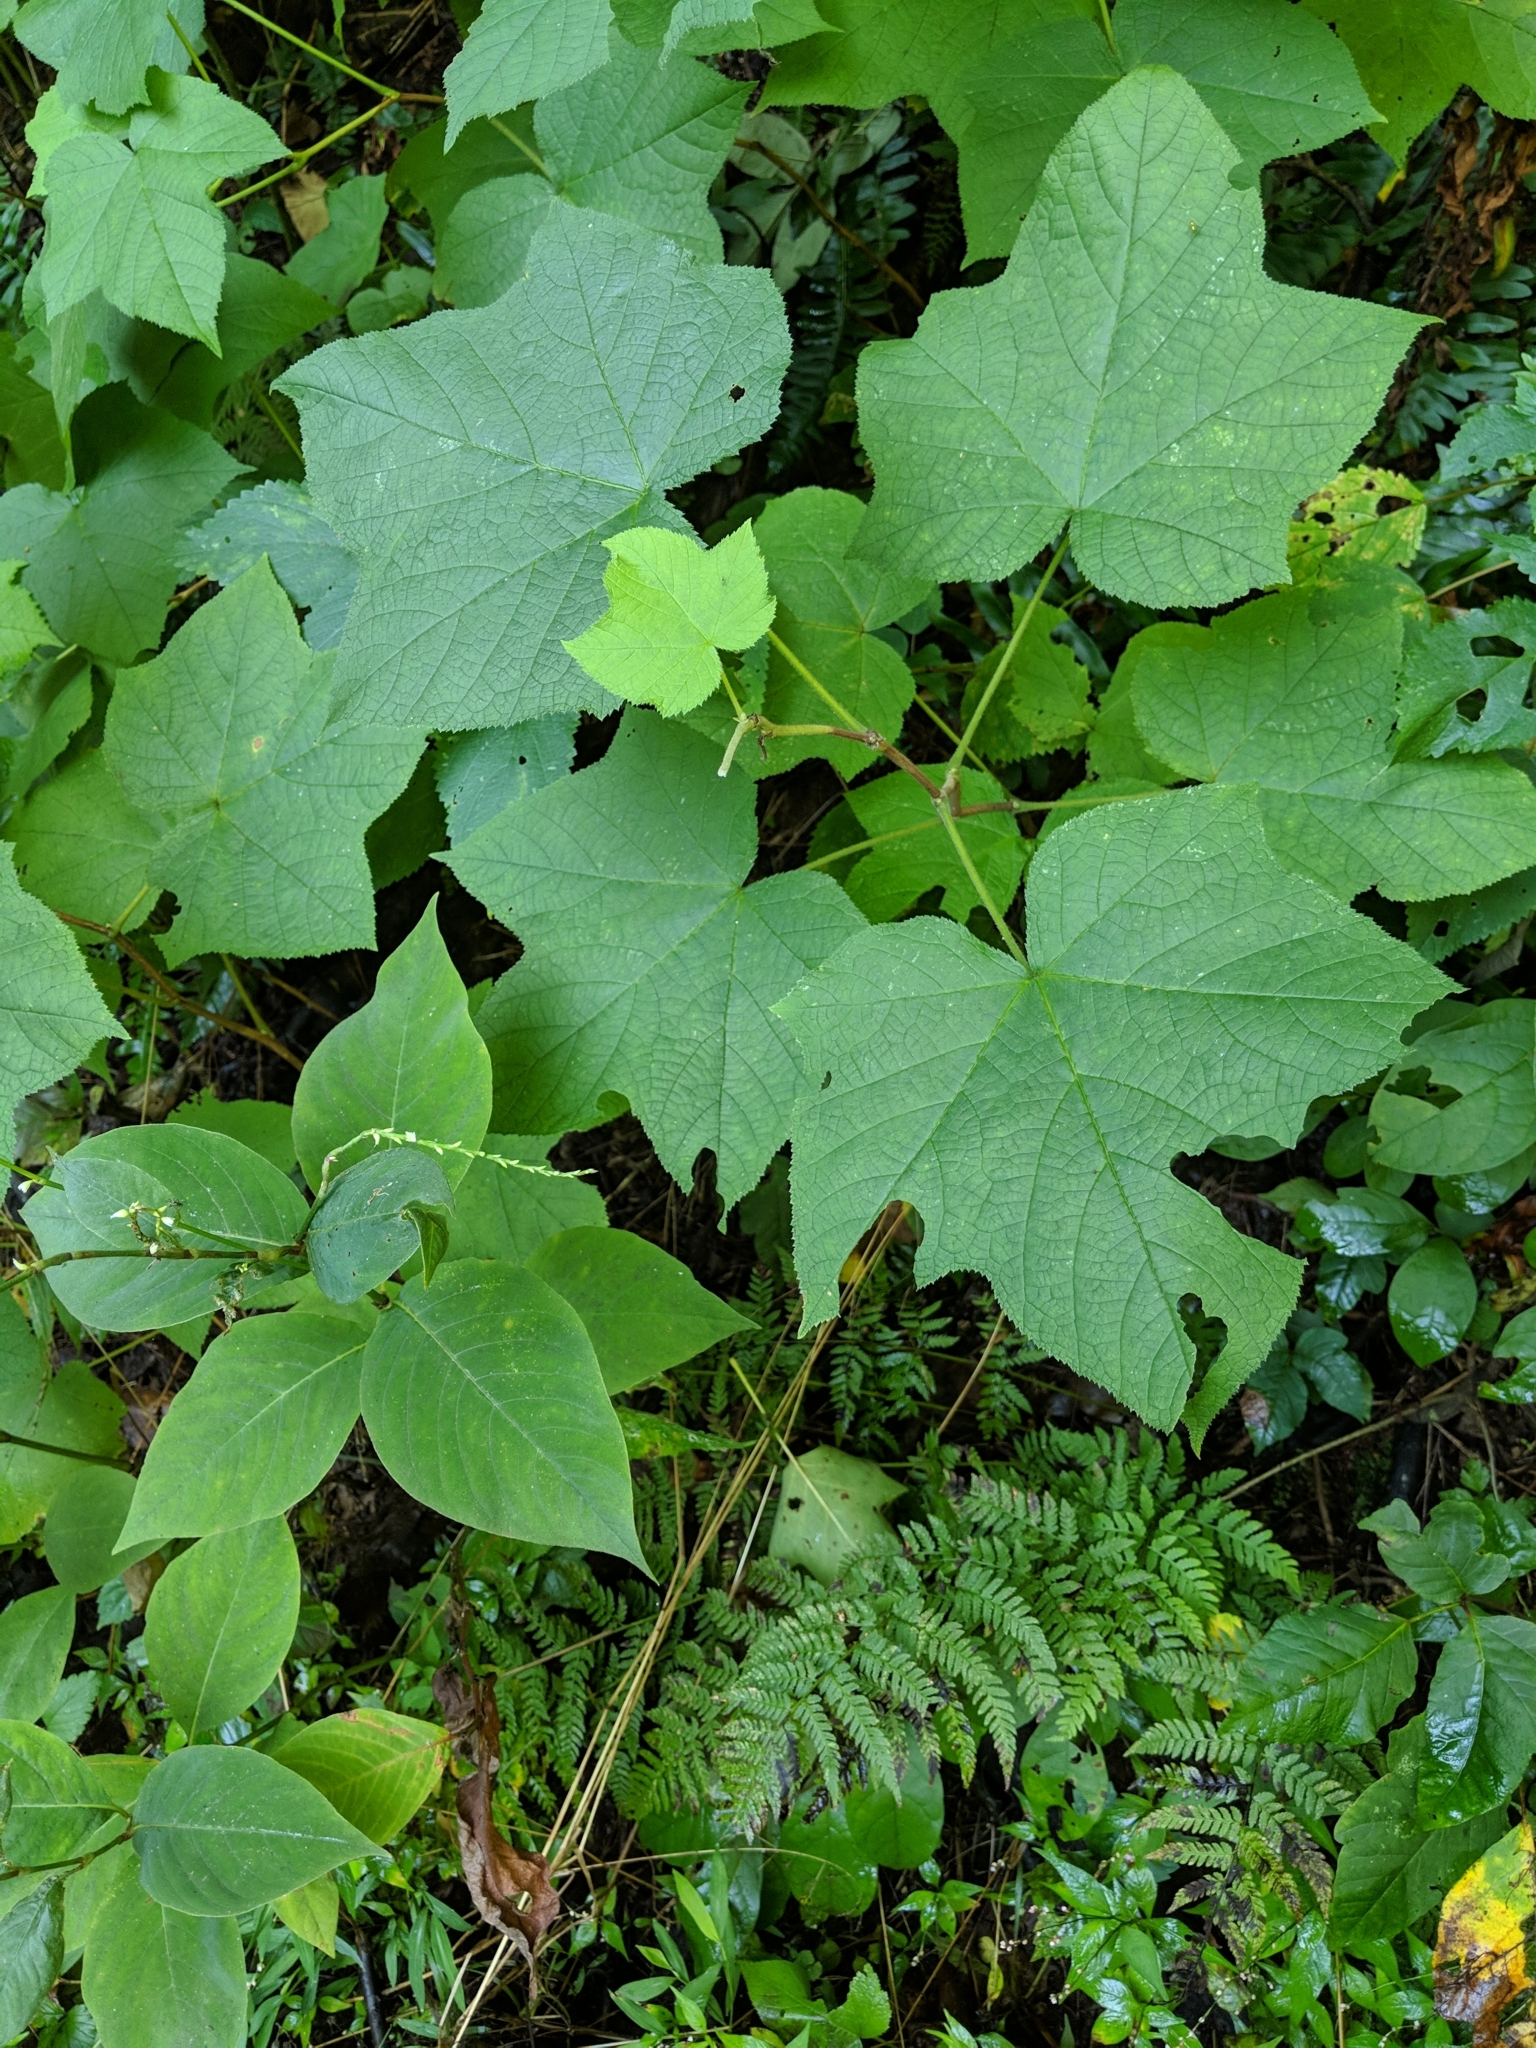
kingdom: Plantae
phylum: Tracheophyta
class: Magnoliopsida
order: Rosales
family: Rosaceae
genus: Rubus
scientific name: Rubus odoratus
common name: Purple-flowered raspberry
